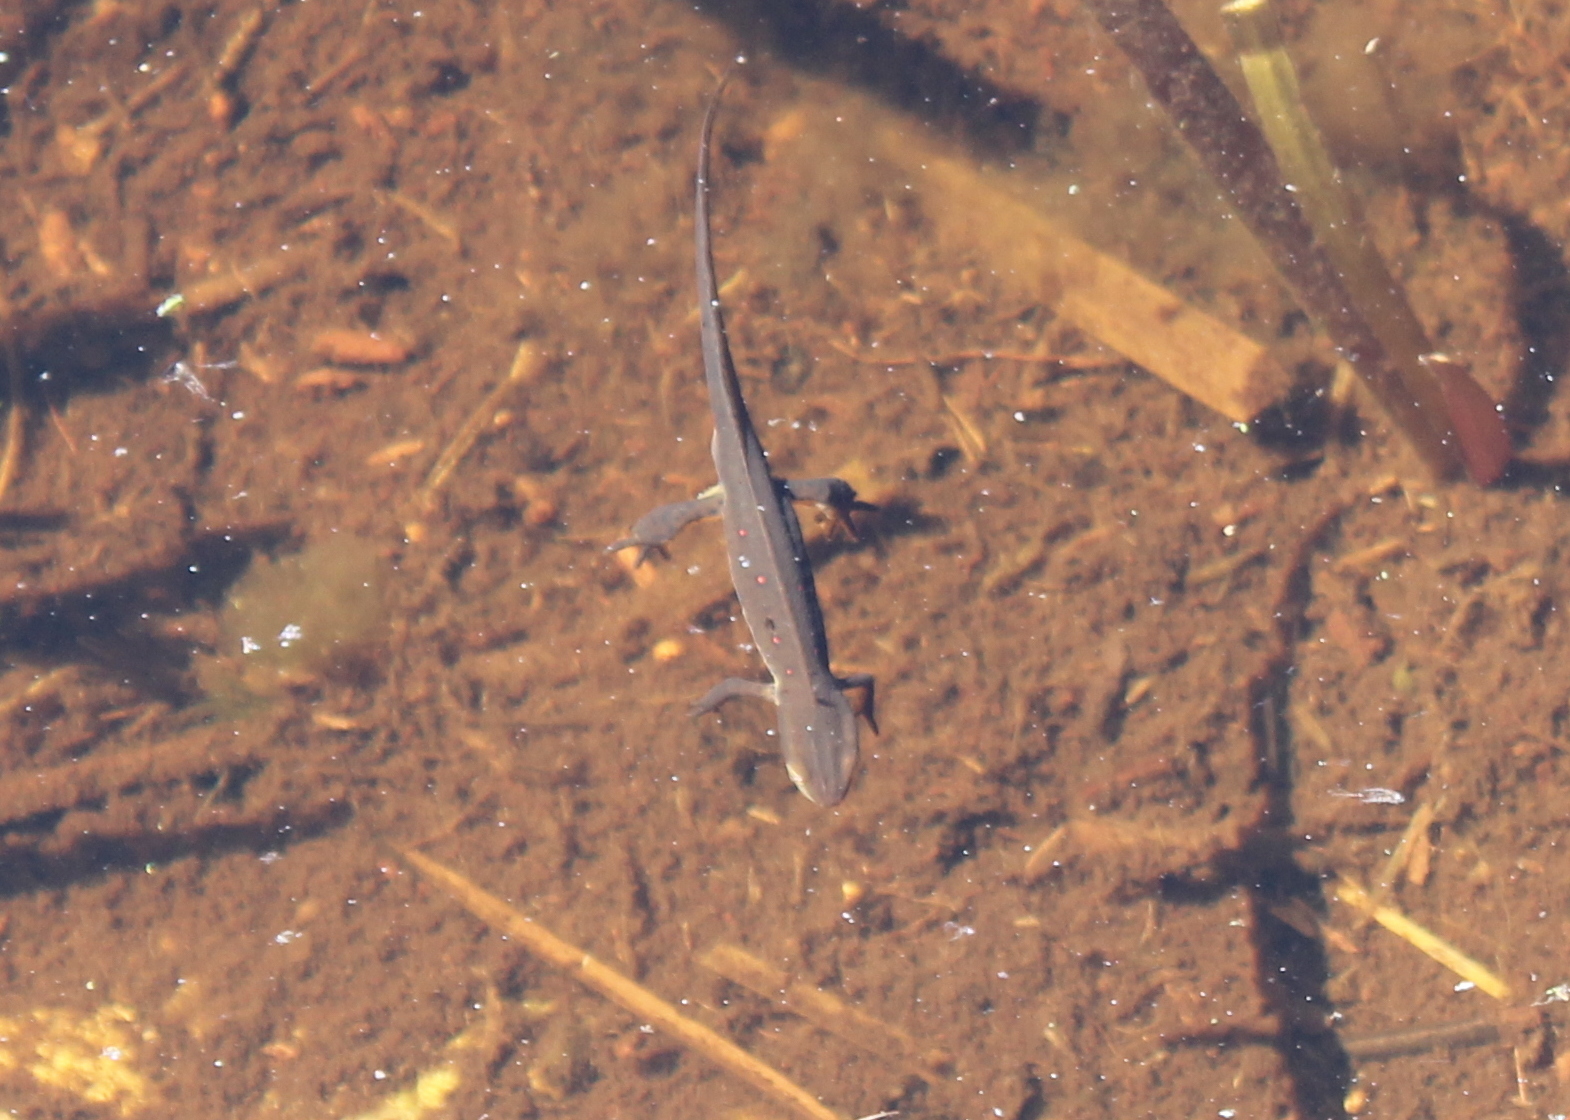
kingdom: Animalia
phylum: Chordata
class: Amphibia
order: Caudata
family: Salamandridae
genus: Notophthalmus
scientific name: Notophthalmus viridescens
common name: Eastern newt
